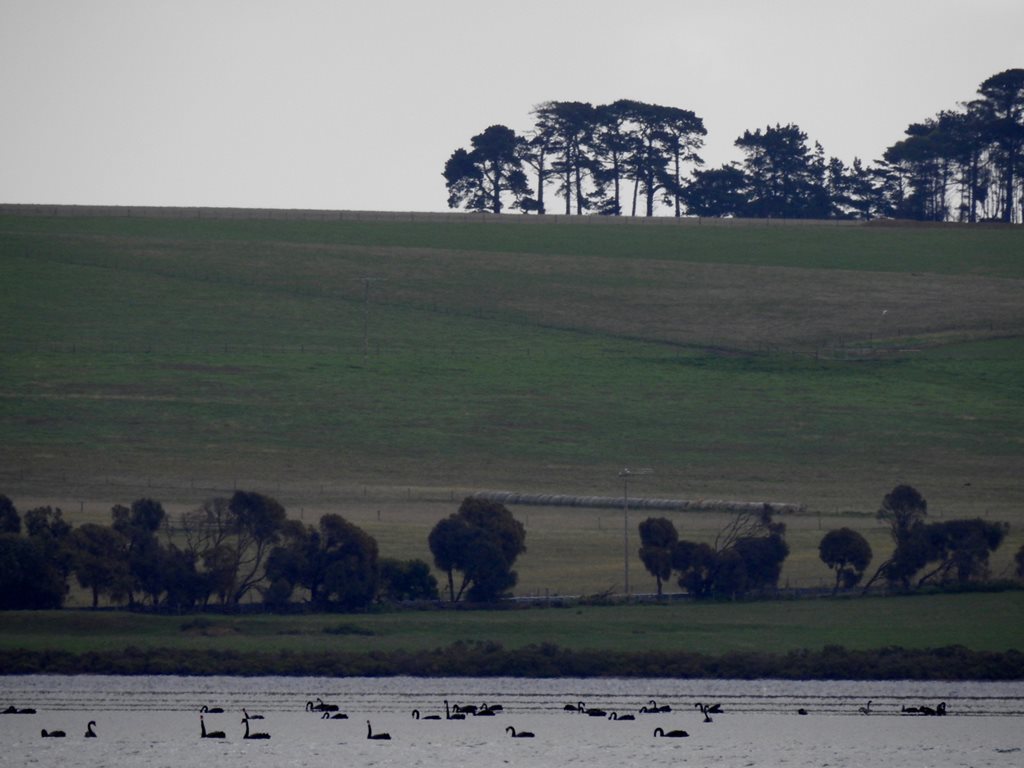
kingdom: Animalia
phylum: Chordata
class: Aves
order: Anseriformes
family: Anatidae
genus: Cygnus
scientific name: Cygnus atratus
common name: Black swan
